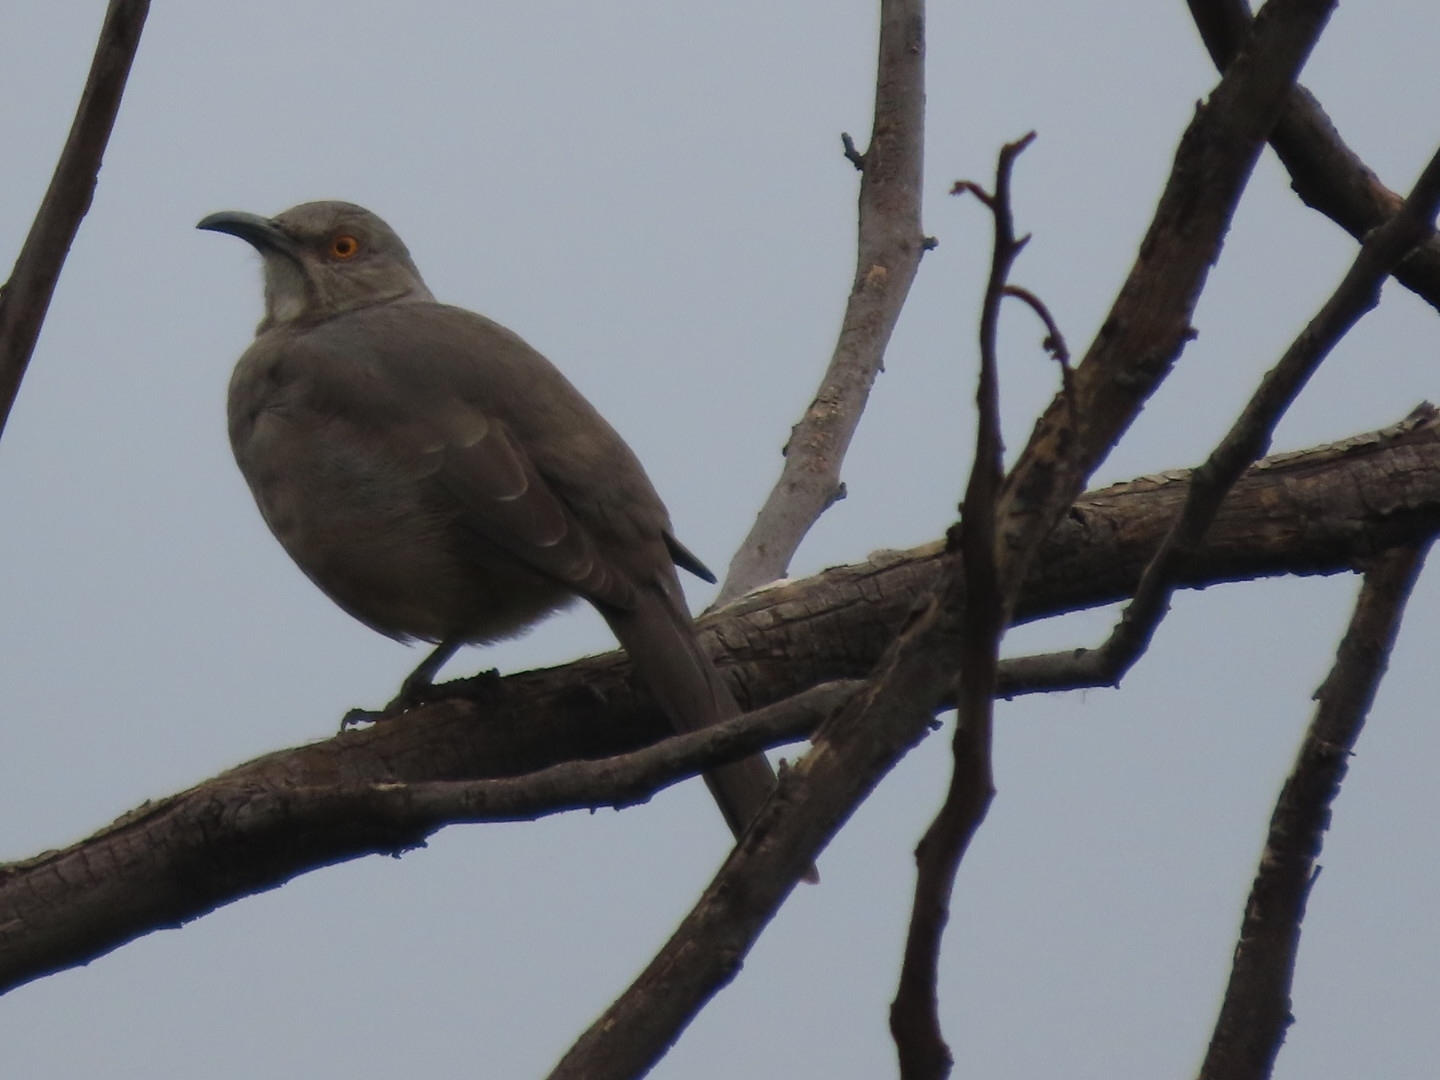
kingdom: Animalia
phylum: Chordata
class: Aves
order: Passeriformes
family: Mimidae
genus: Toxostoma
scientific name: Toxostoma curvirostre
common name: Curve-billed thrasher
